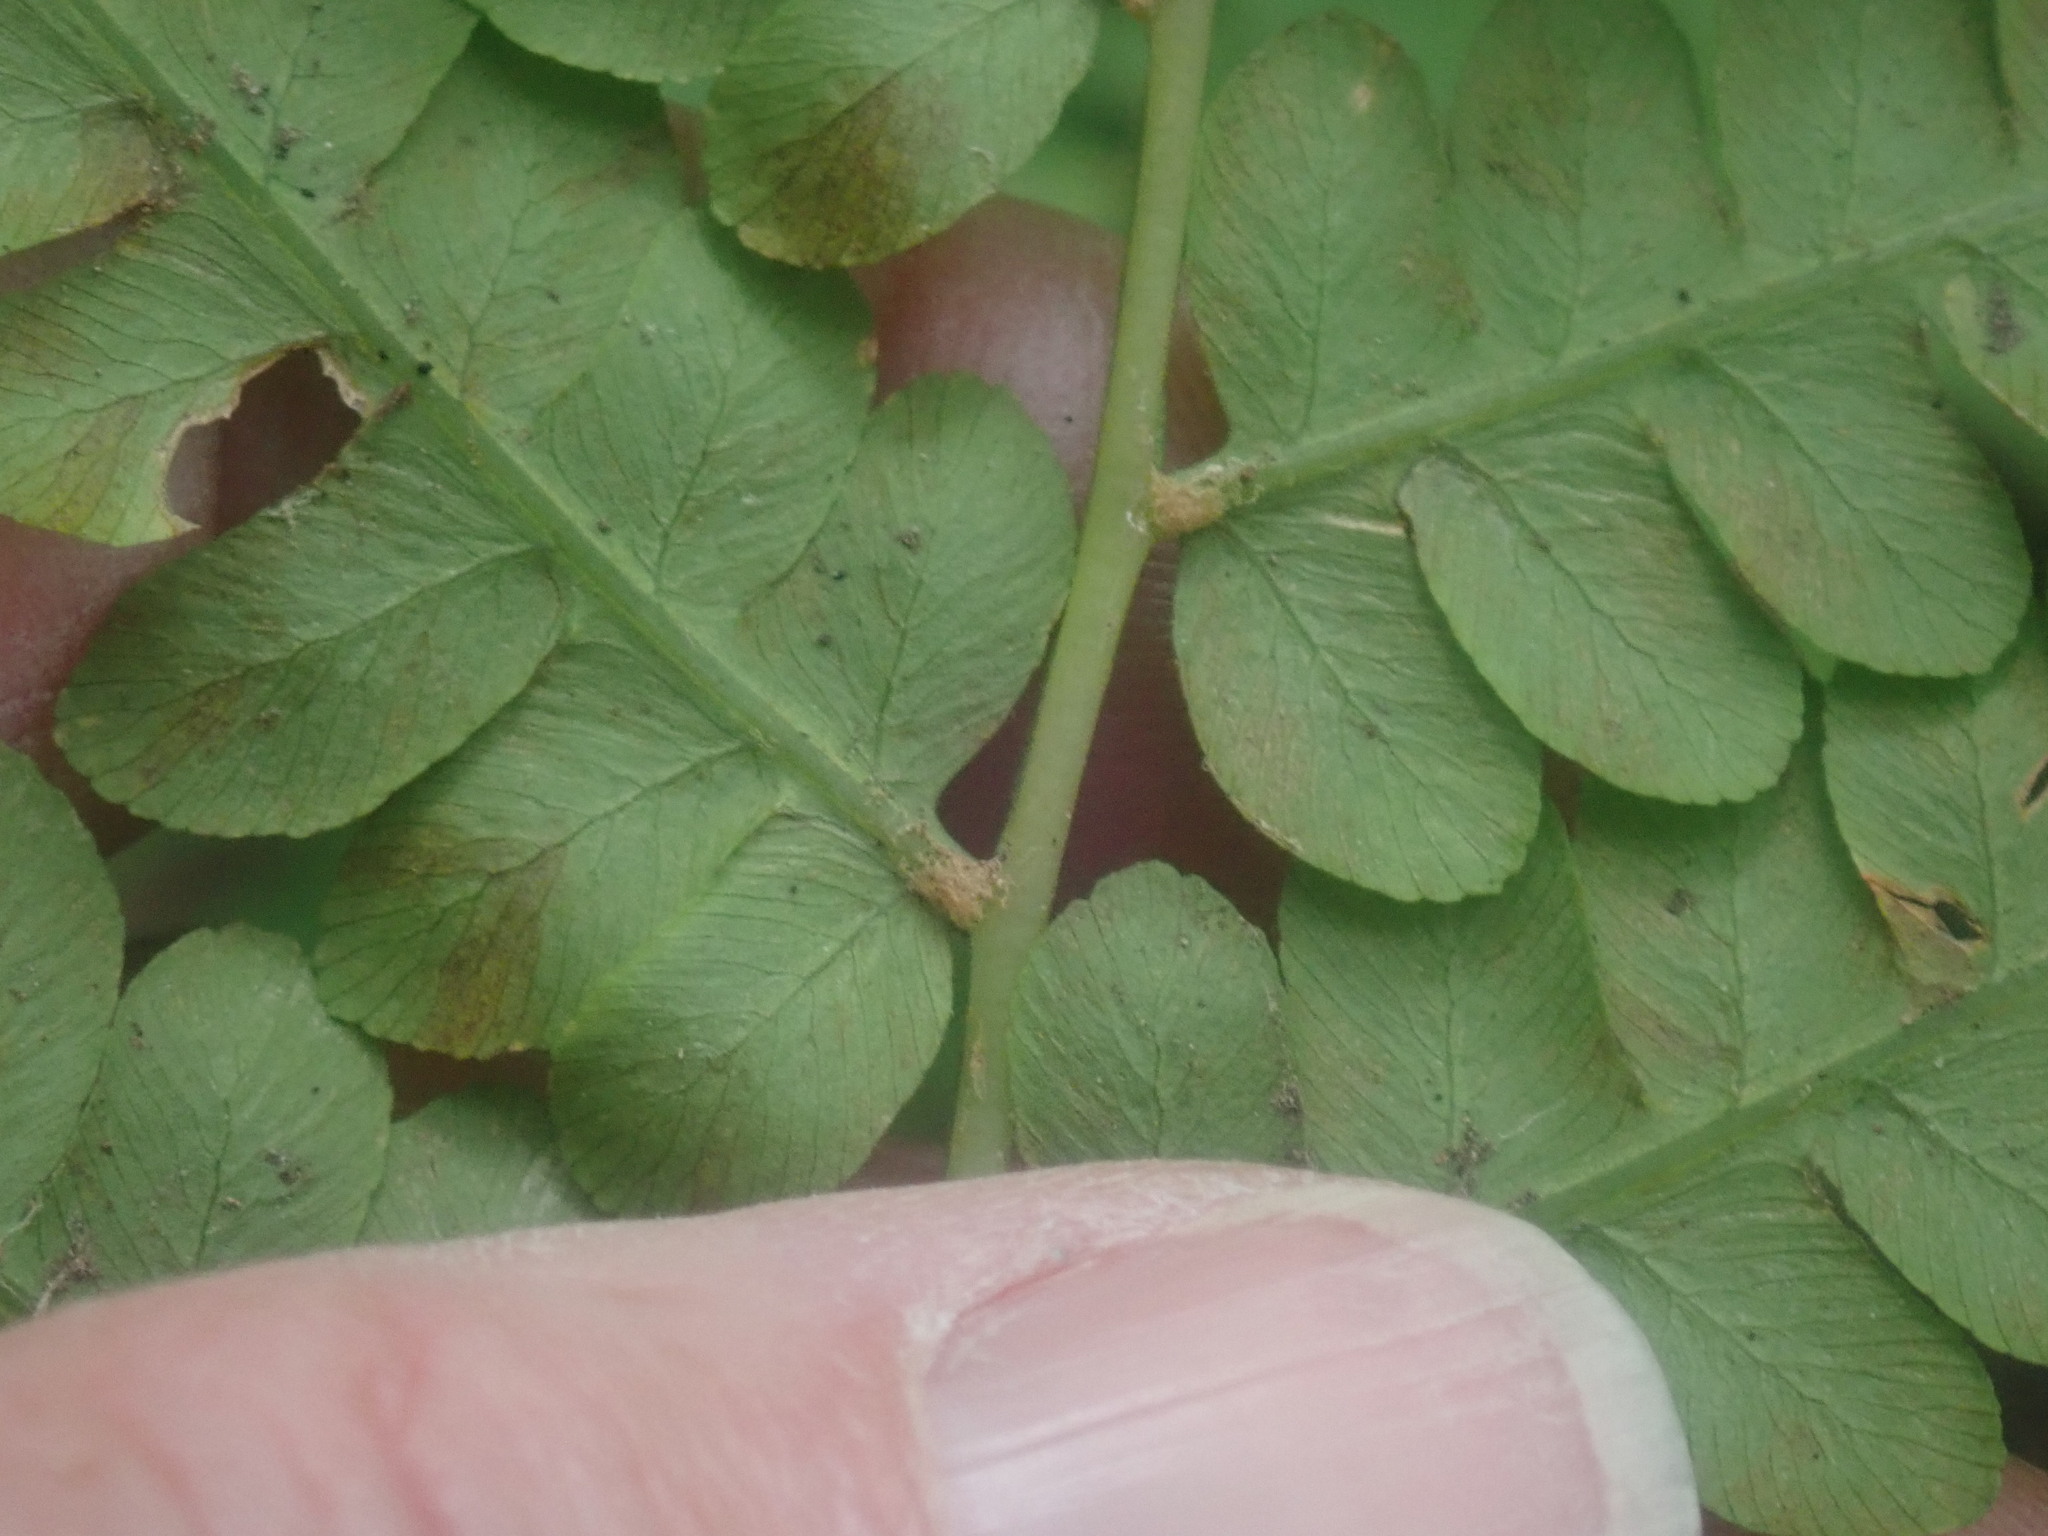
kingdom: Plantae
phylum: Tracheophyta
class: Polypodiopsida
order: Osmundales
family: Osmundaceae
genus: Osmundastrum
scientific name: Osmundastrum cinnamomeum
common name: Cinnamon fern
